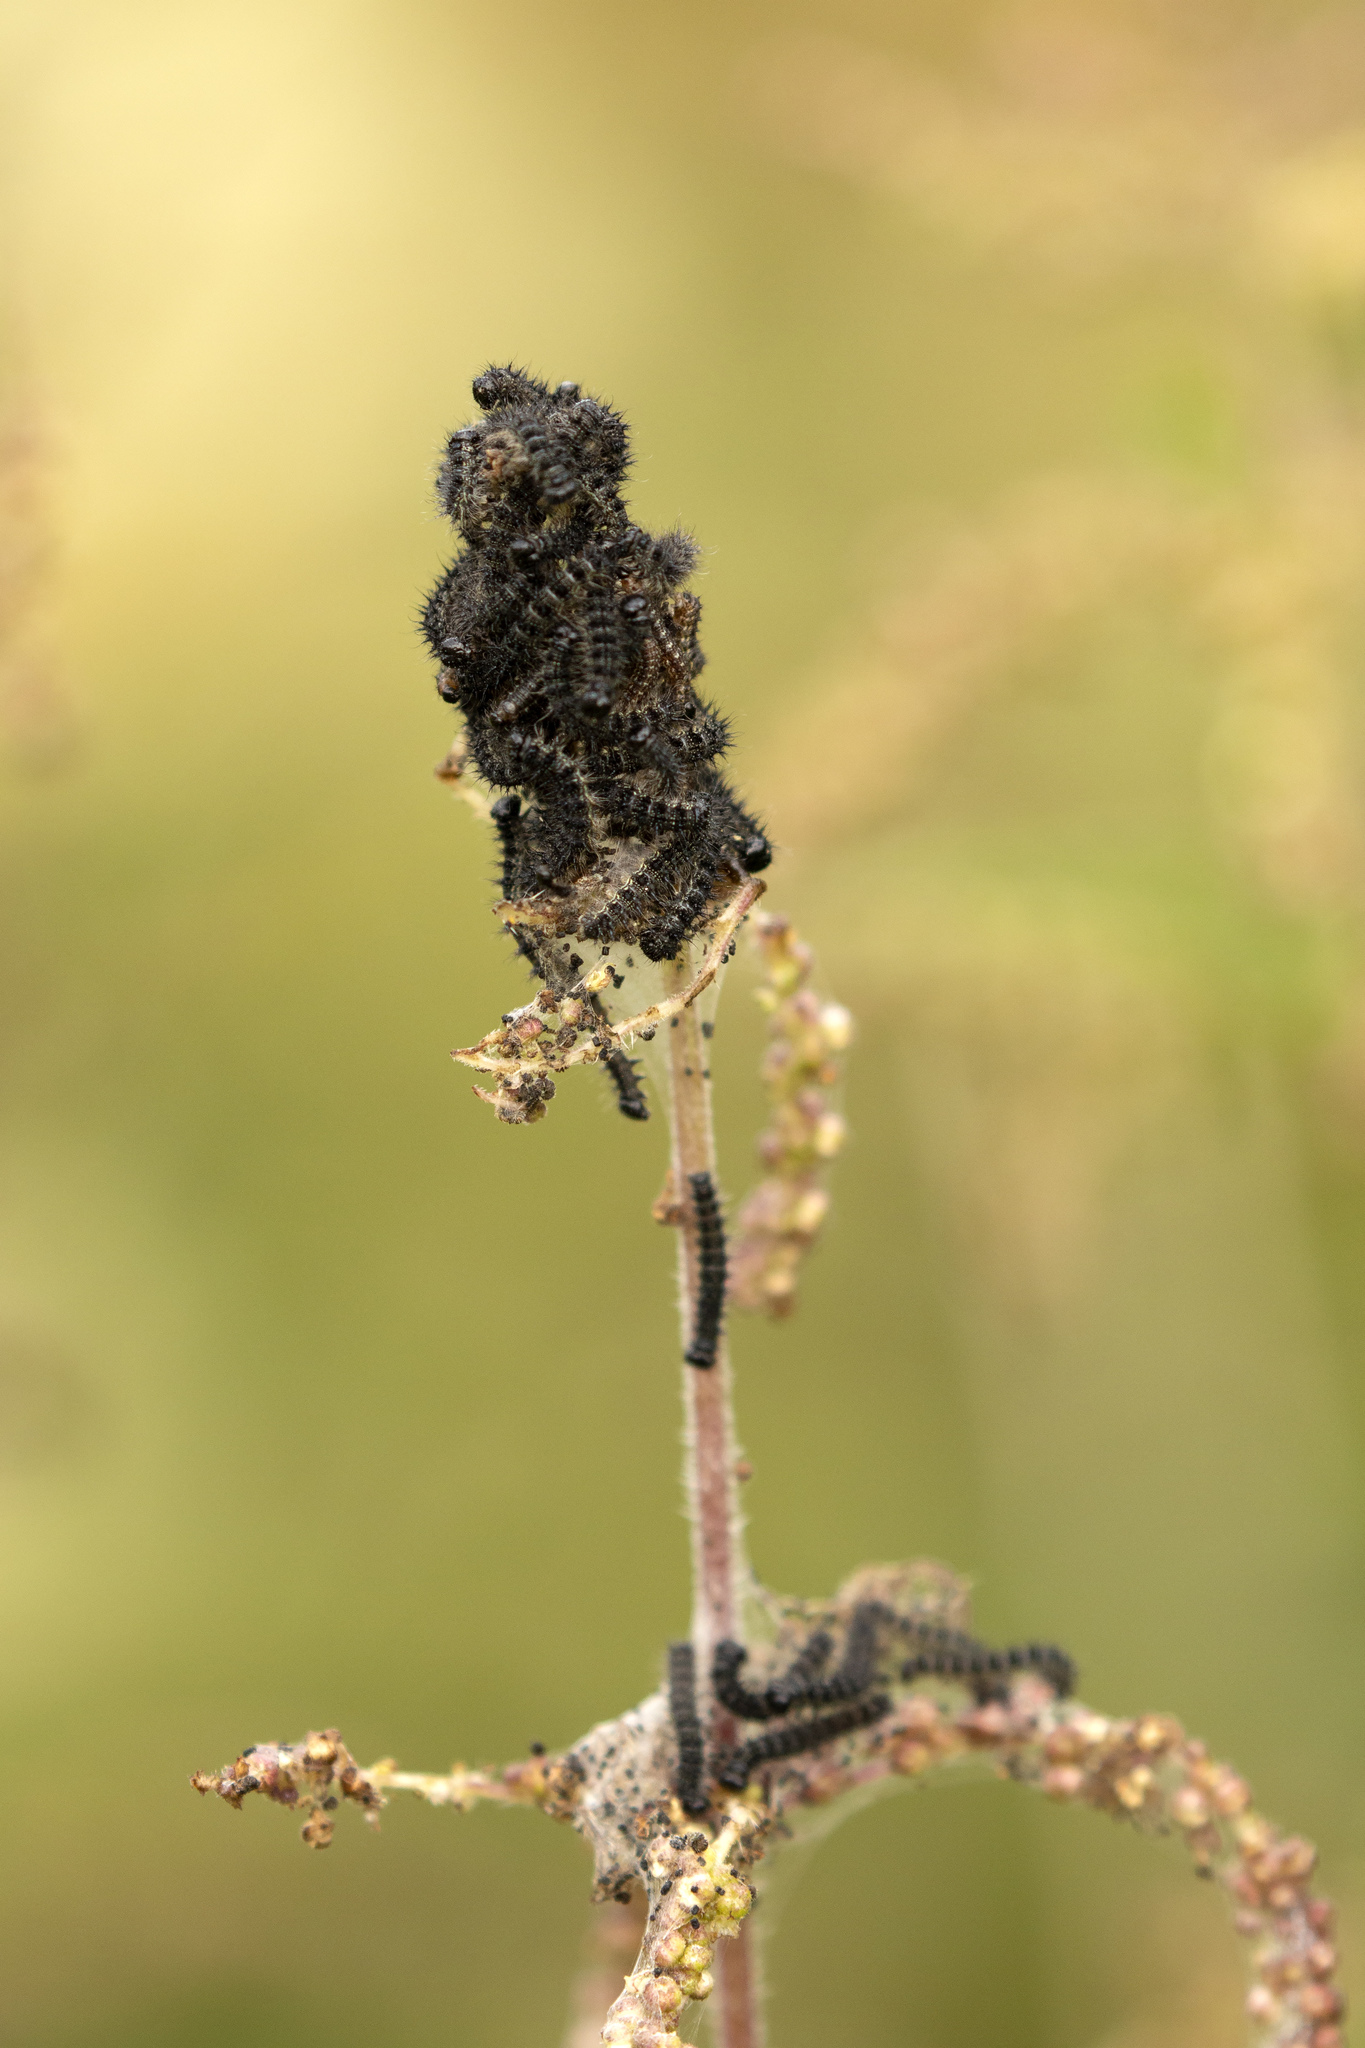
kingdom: Animalia
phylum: Arthropoda
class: Insecta
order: Lepidoptera
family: Nymphalidae
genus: Aglais
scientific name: Aglais urticae
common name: Small tortoiseshell
